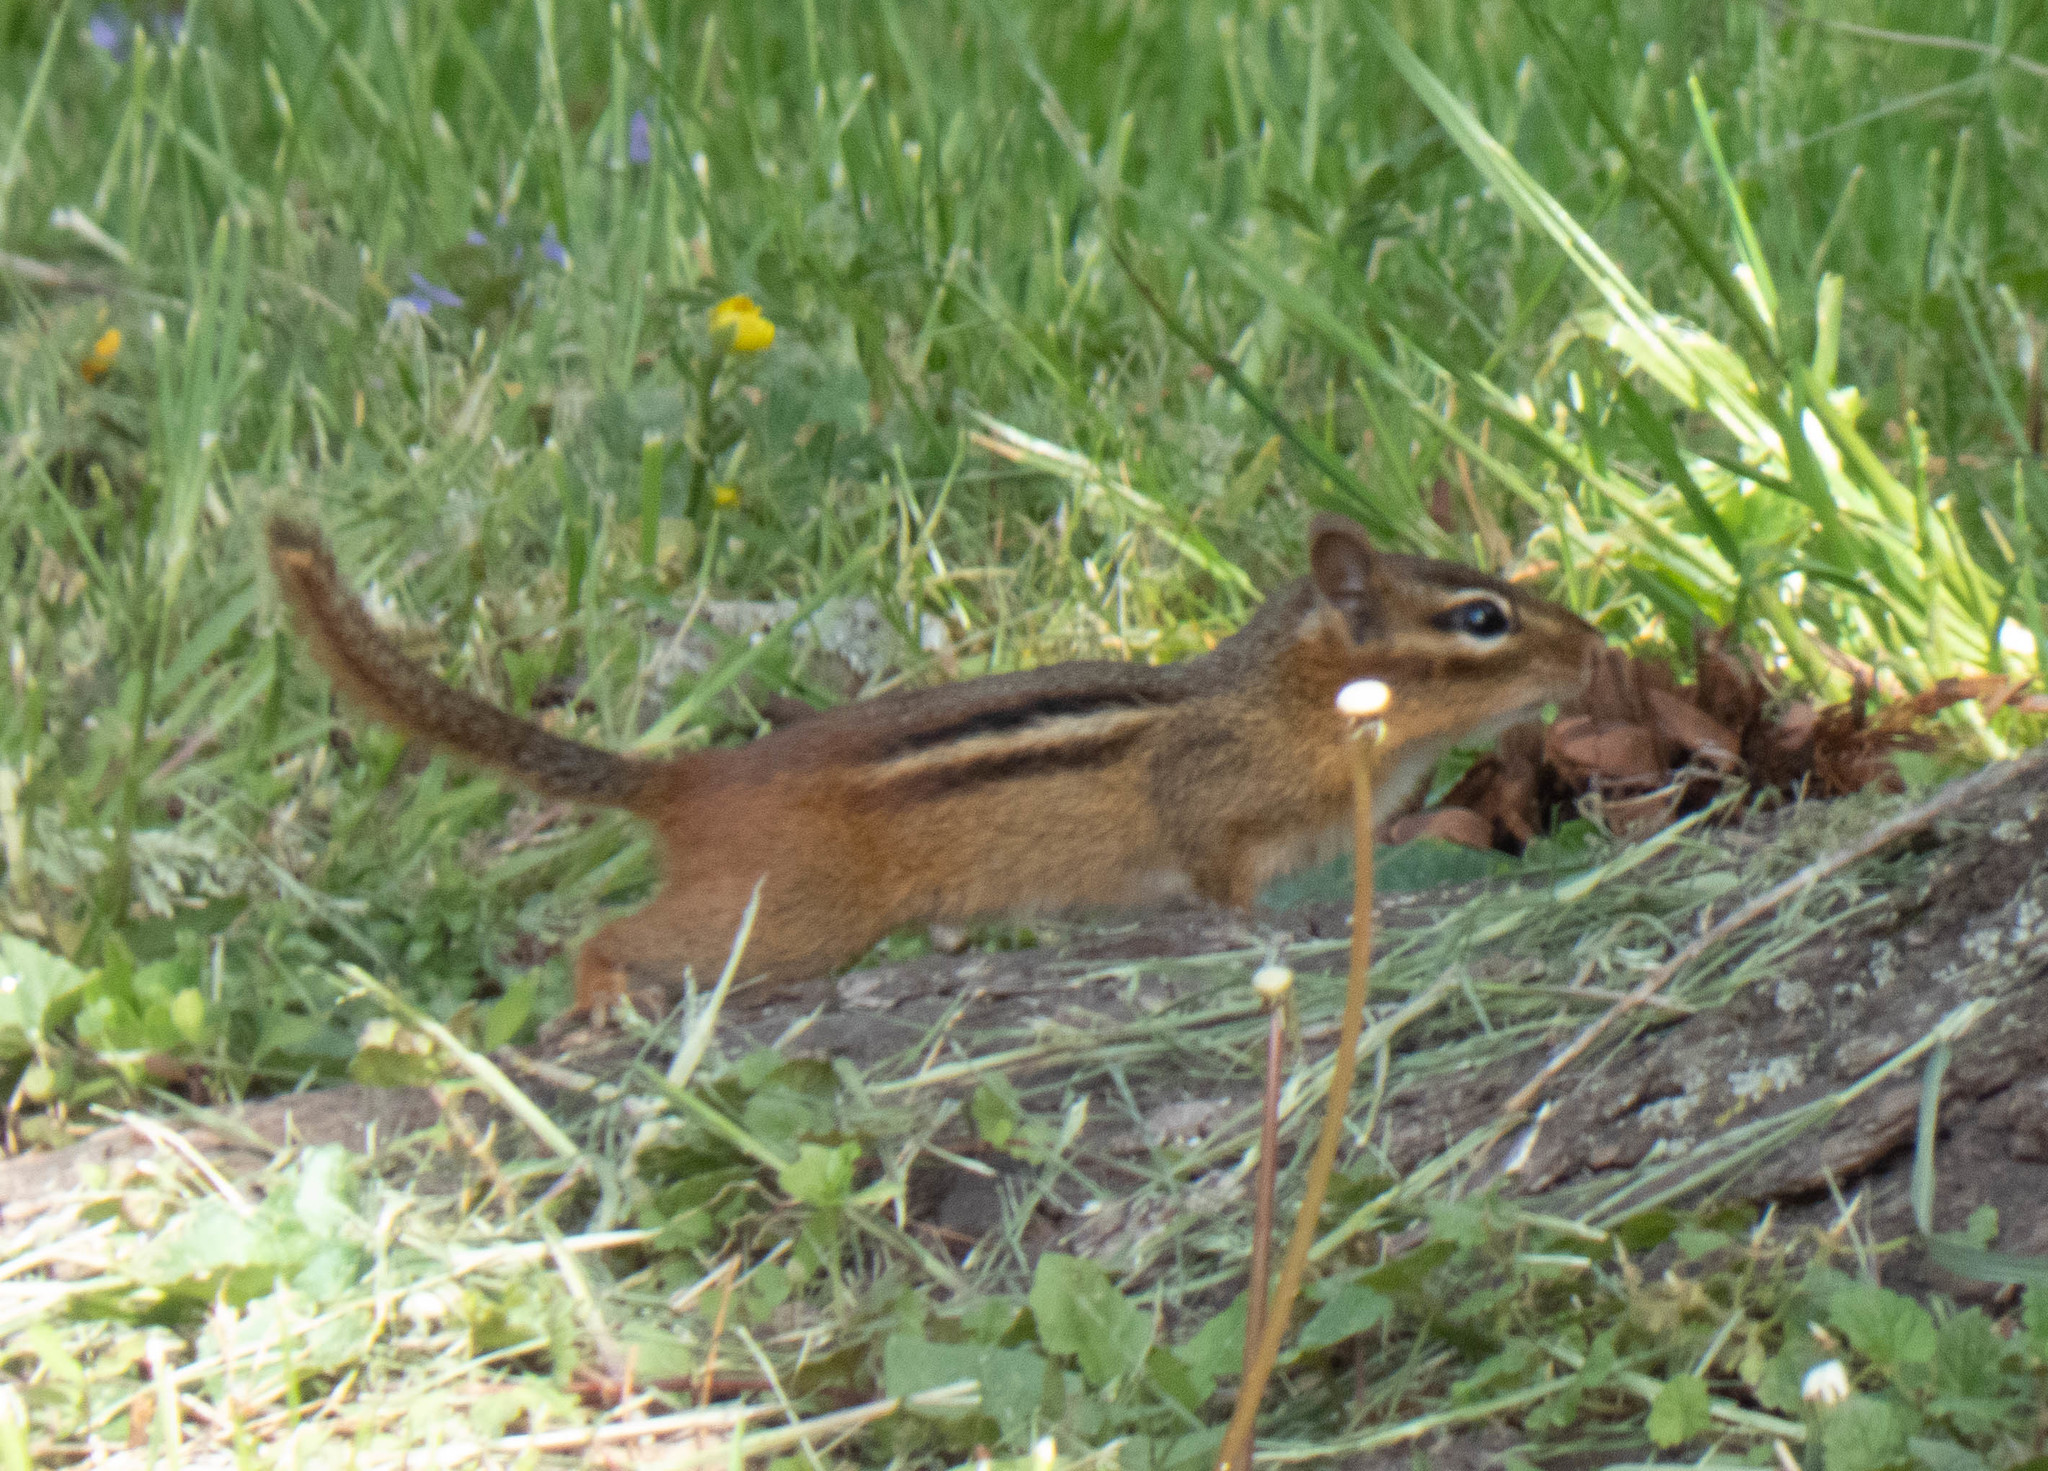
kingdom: Animalia
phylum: Chordata
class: Mammalia
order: Rodentia
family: Sciuridae
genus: Tamias
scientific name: Tamias striatus
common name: Eastern chipmunk
